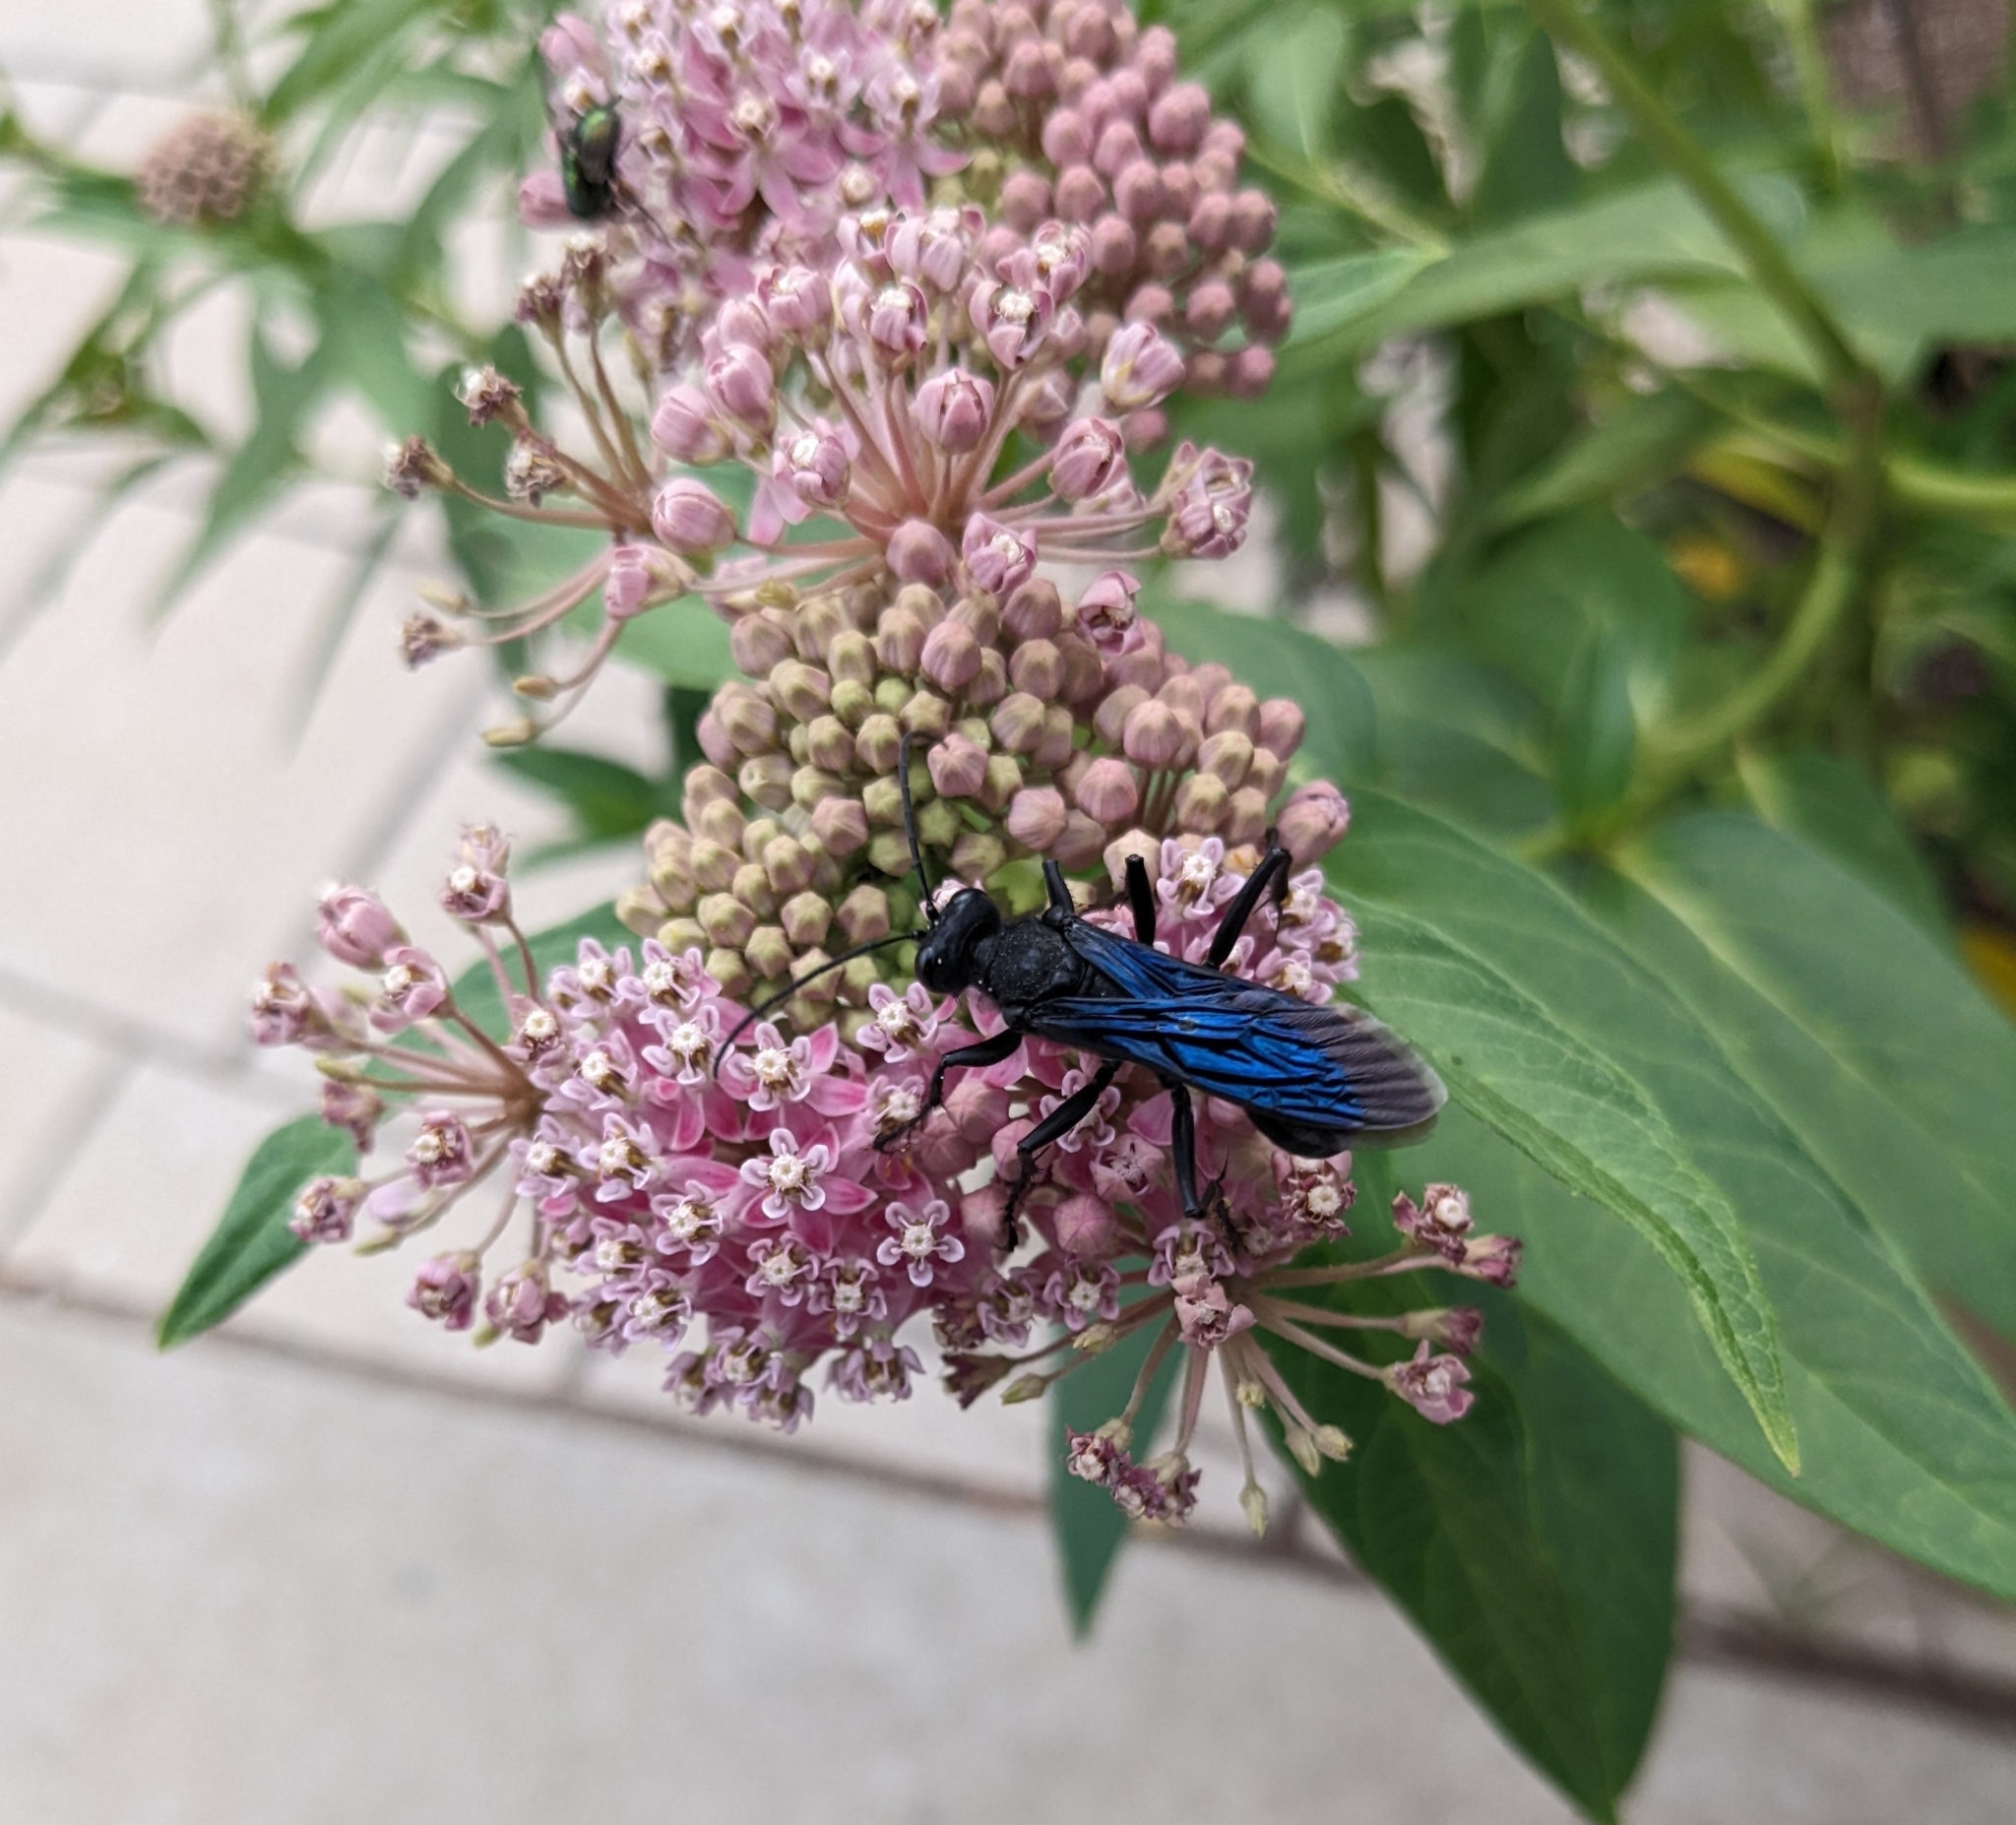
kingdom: Animalia
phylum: Arthropoda
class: Insecta
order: Hymenoptera
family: Sphecidae
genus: Sphex
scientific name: Sphex pensylvanicus
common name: Great black digger wasp
